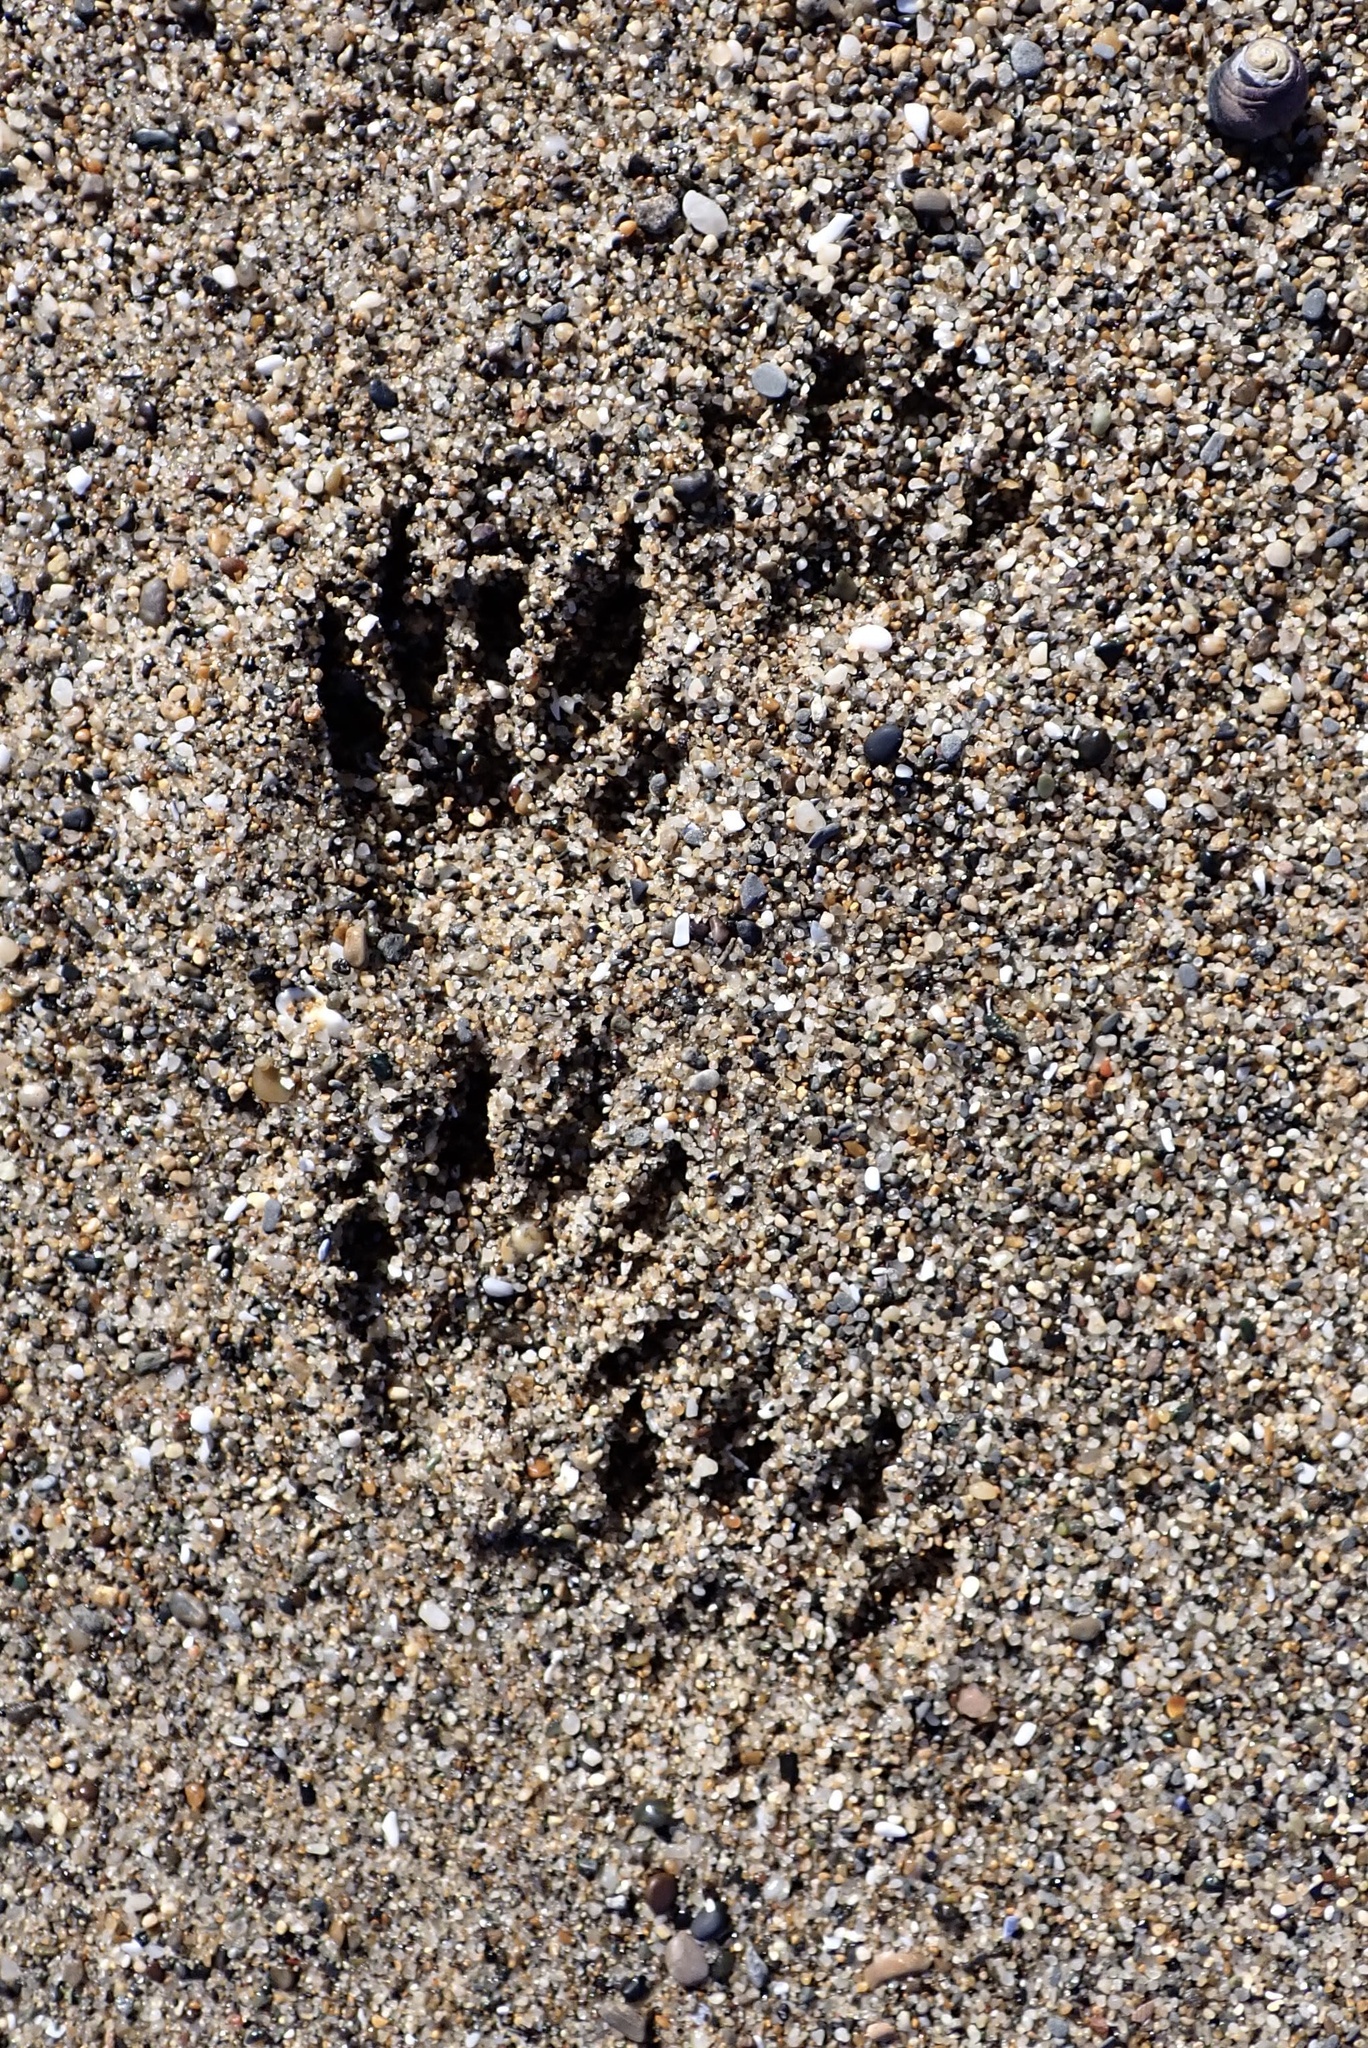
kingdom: Animalia
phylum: Chordata
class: Mammalia
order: Carnivora
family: Procyonidae
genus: Procyon
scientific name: Procyon lotor
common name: Raccoon
